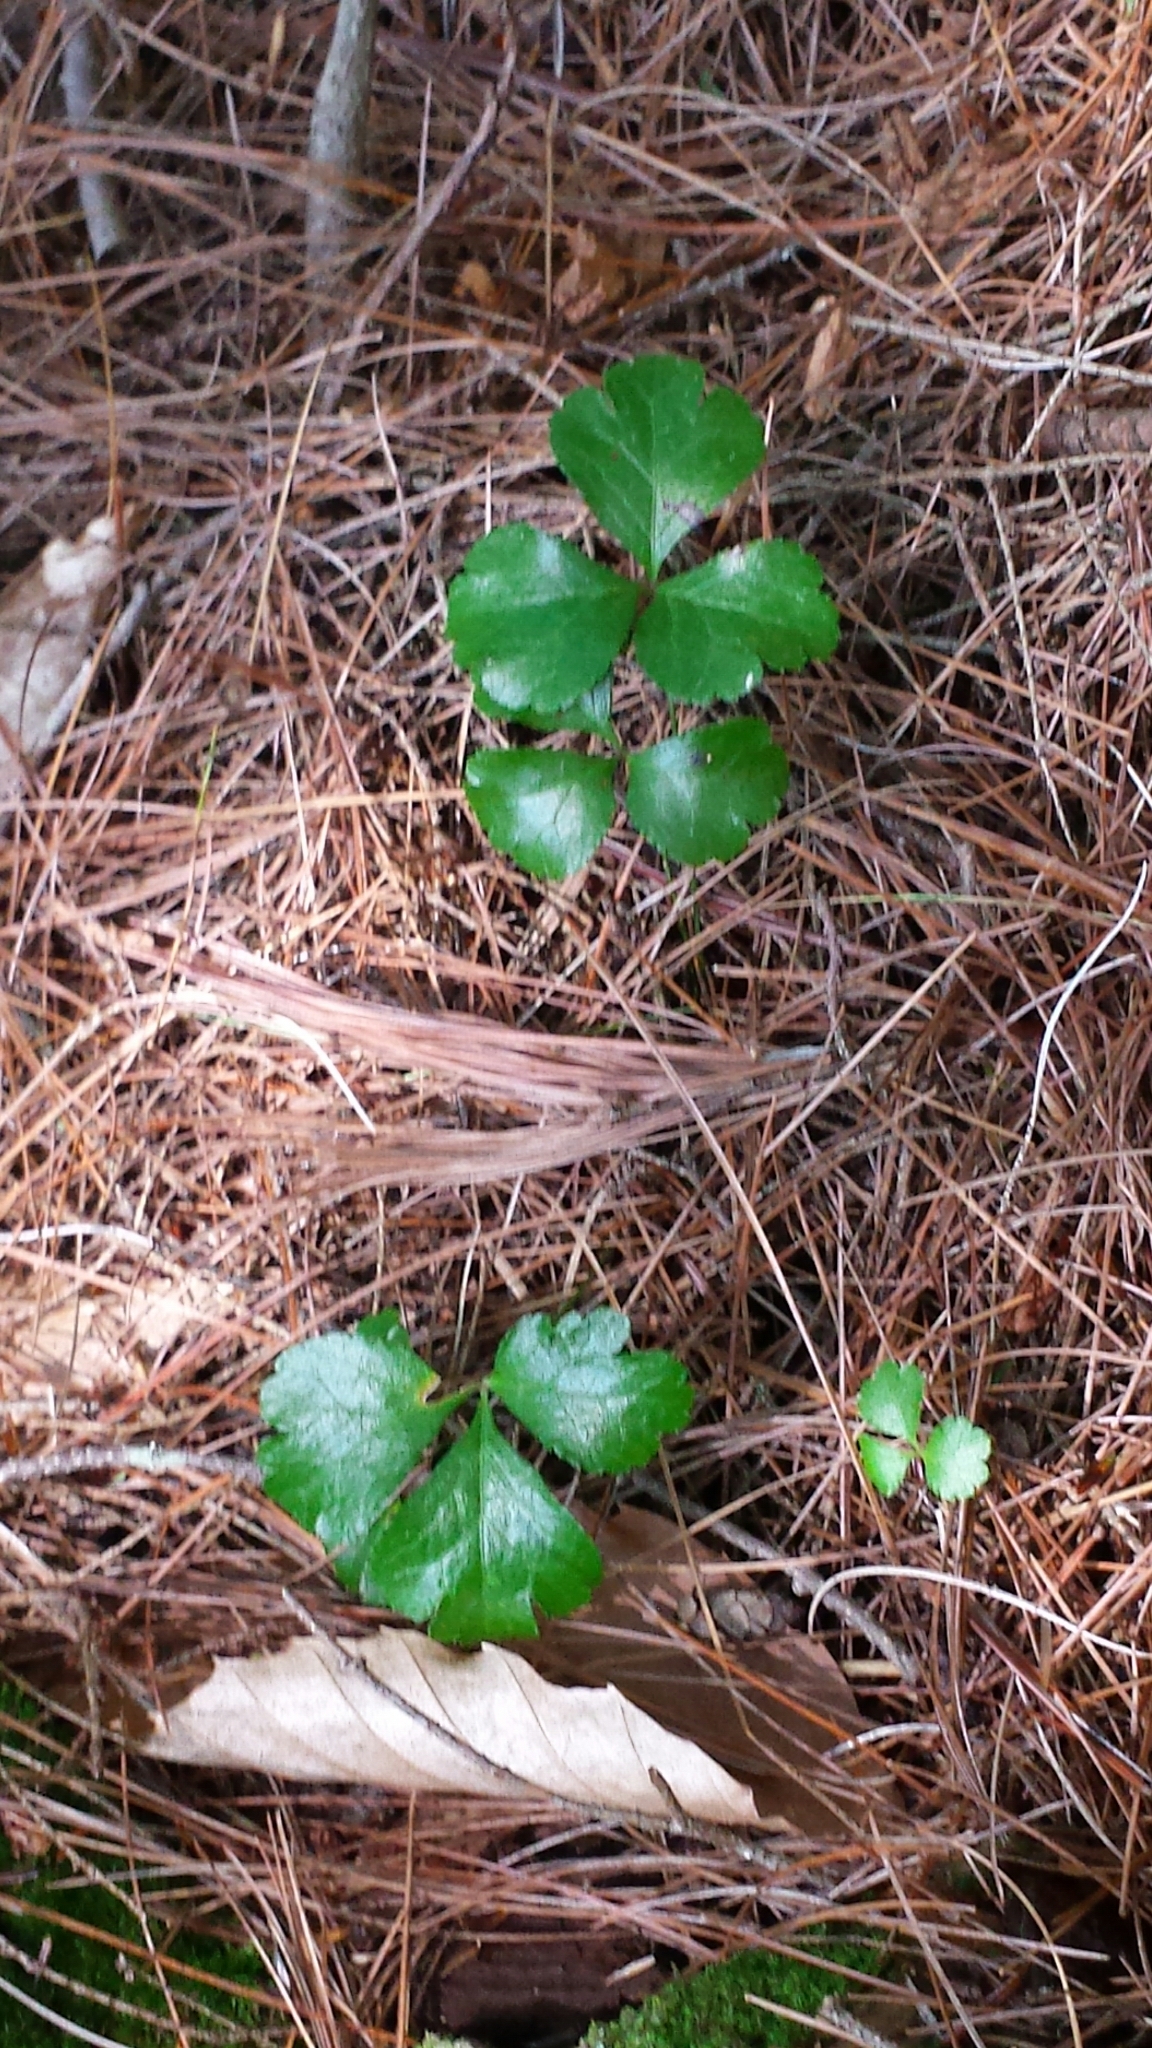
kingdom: Plantae
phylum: Tracheophyta
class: Magnoliopsida
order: Ranunculales
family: Ranunculaceae
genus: Coptis
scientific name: Coptis trifolia
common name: Canker-root
